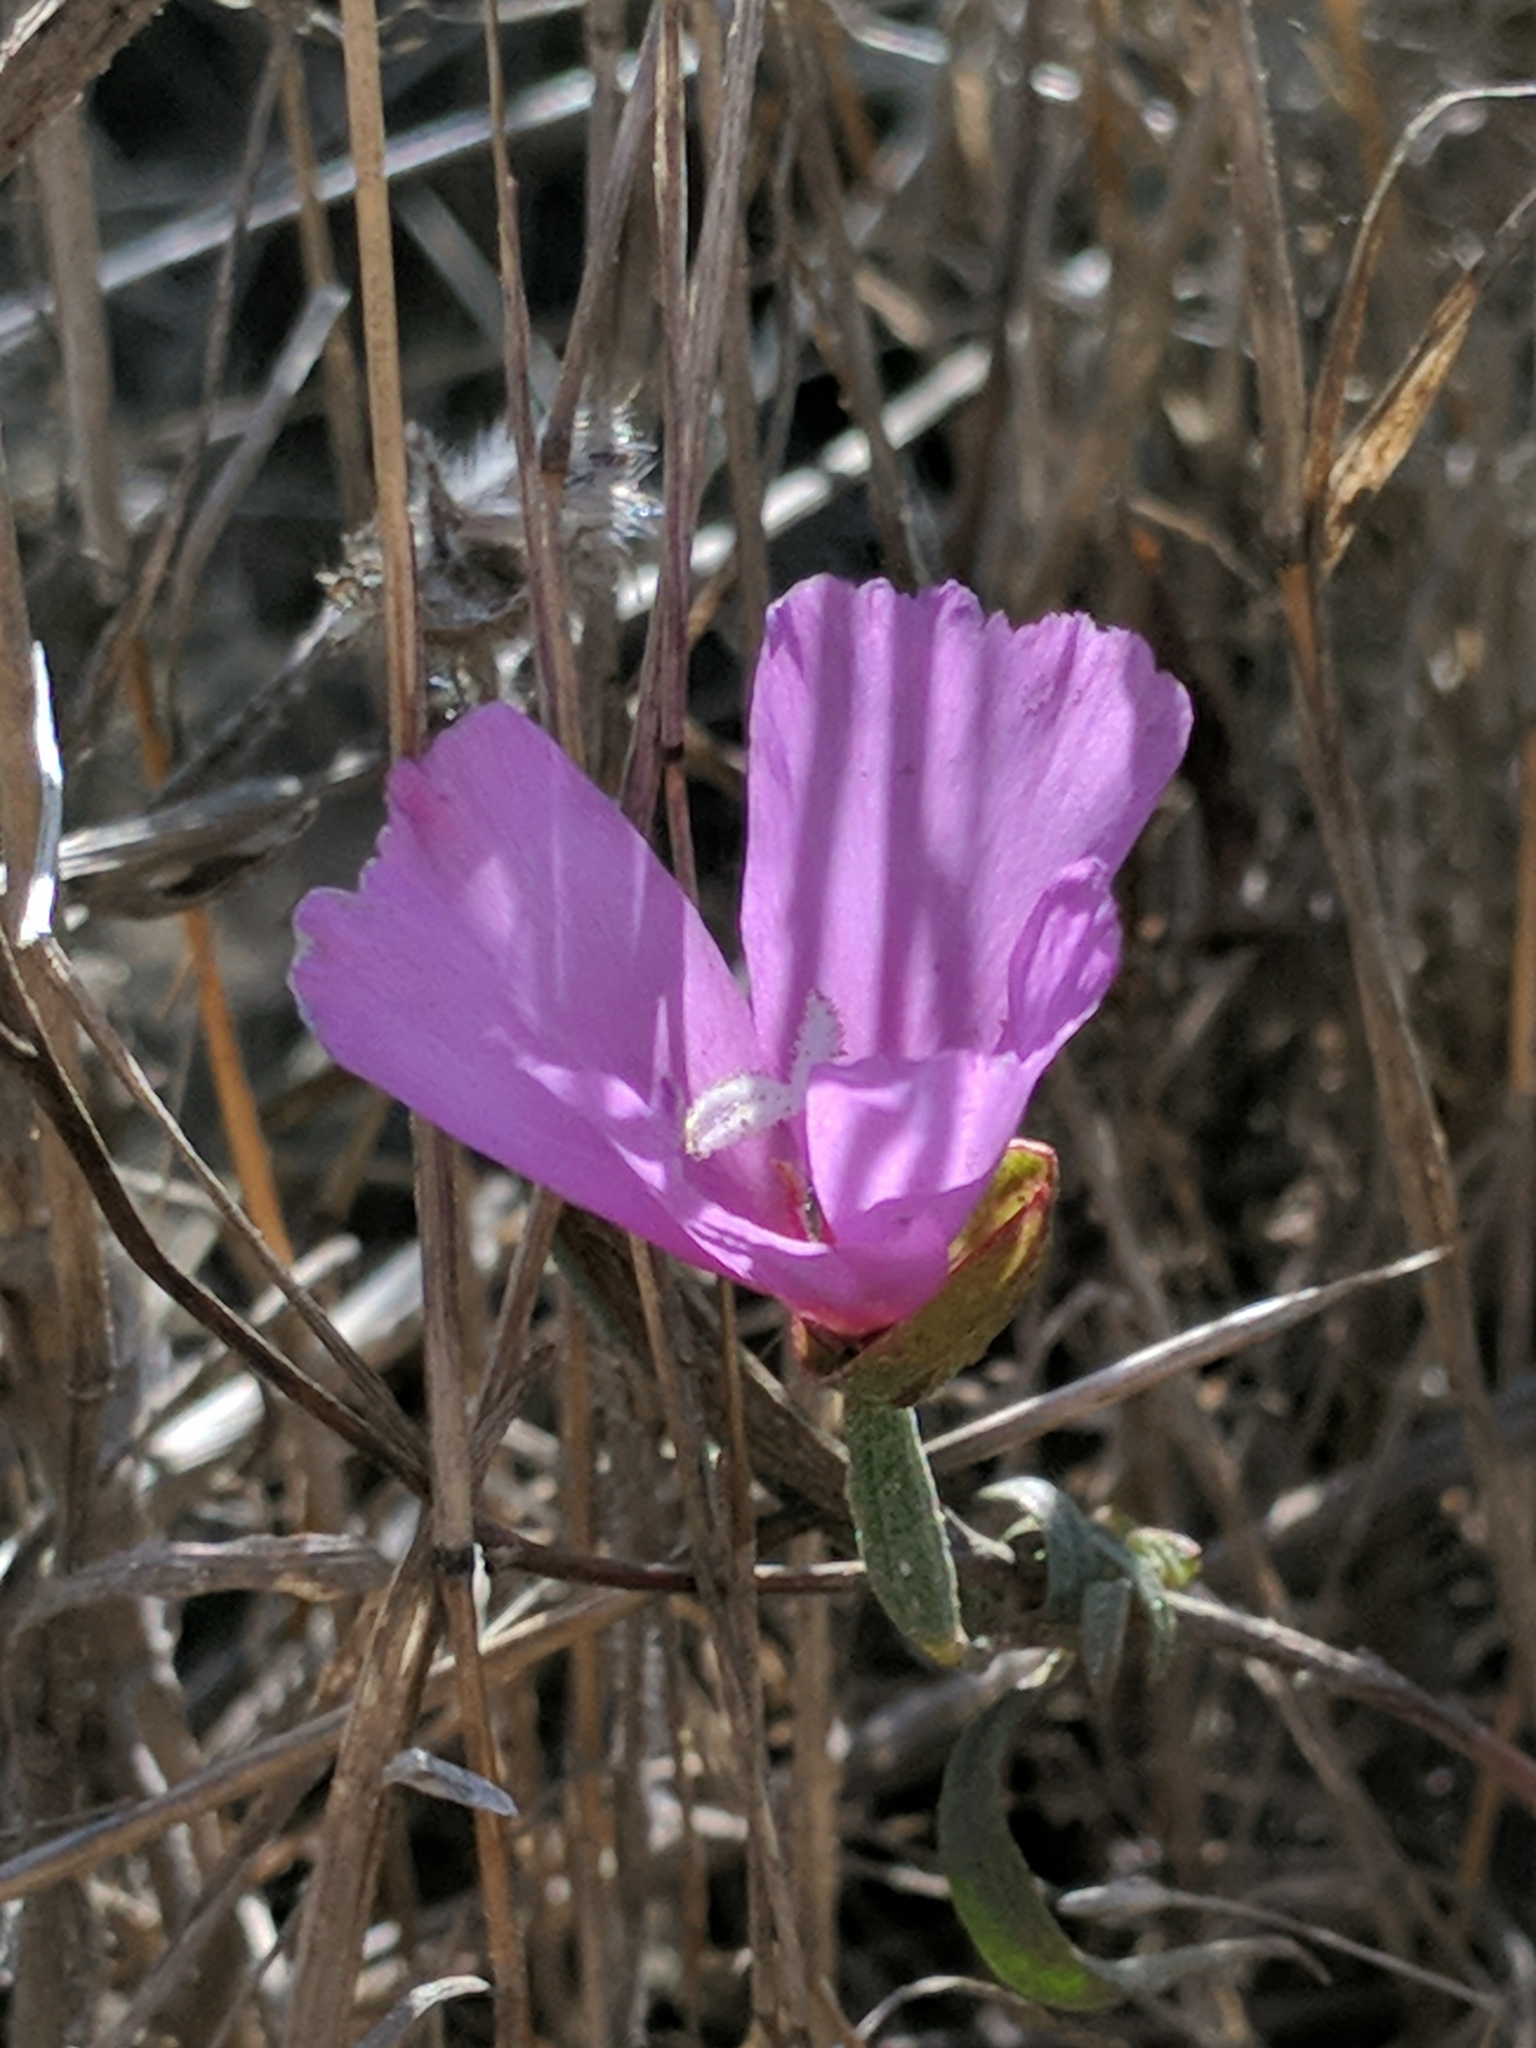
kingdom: Plantae
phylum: Tracheophyta
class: Magnoliopsida
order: Myrtales
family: Onagraceae
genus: Clarkia
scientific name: Clarkia rubicunda
